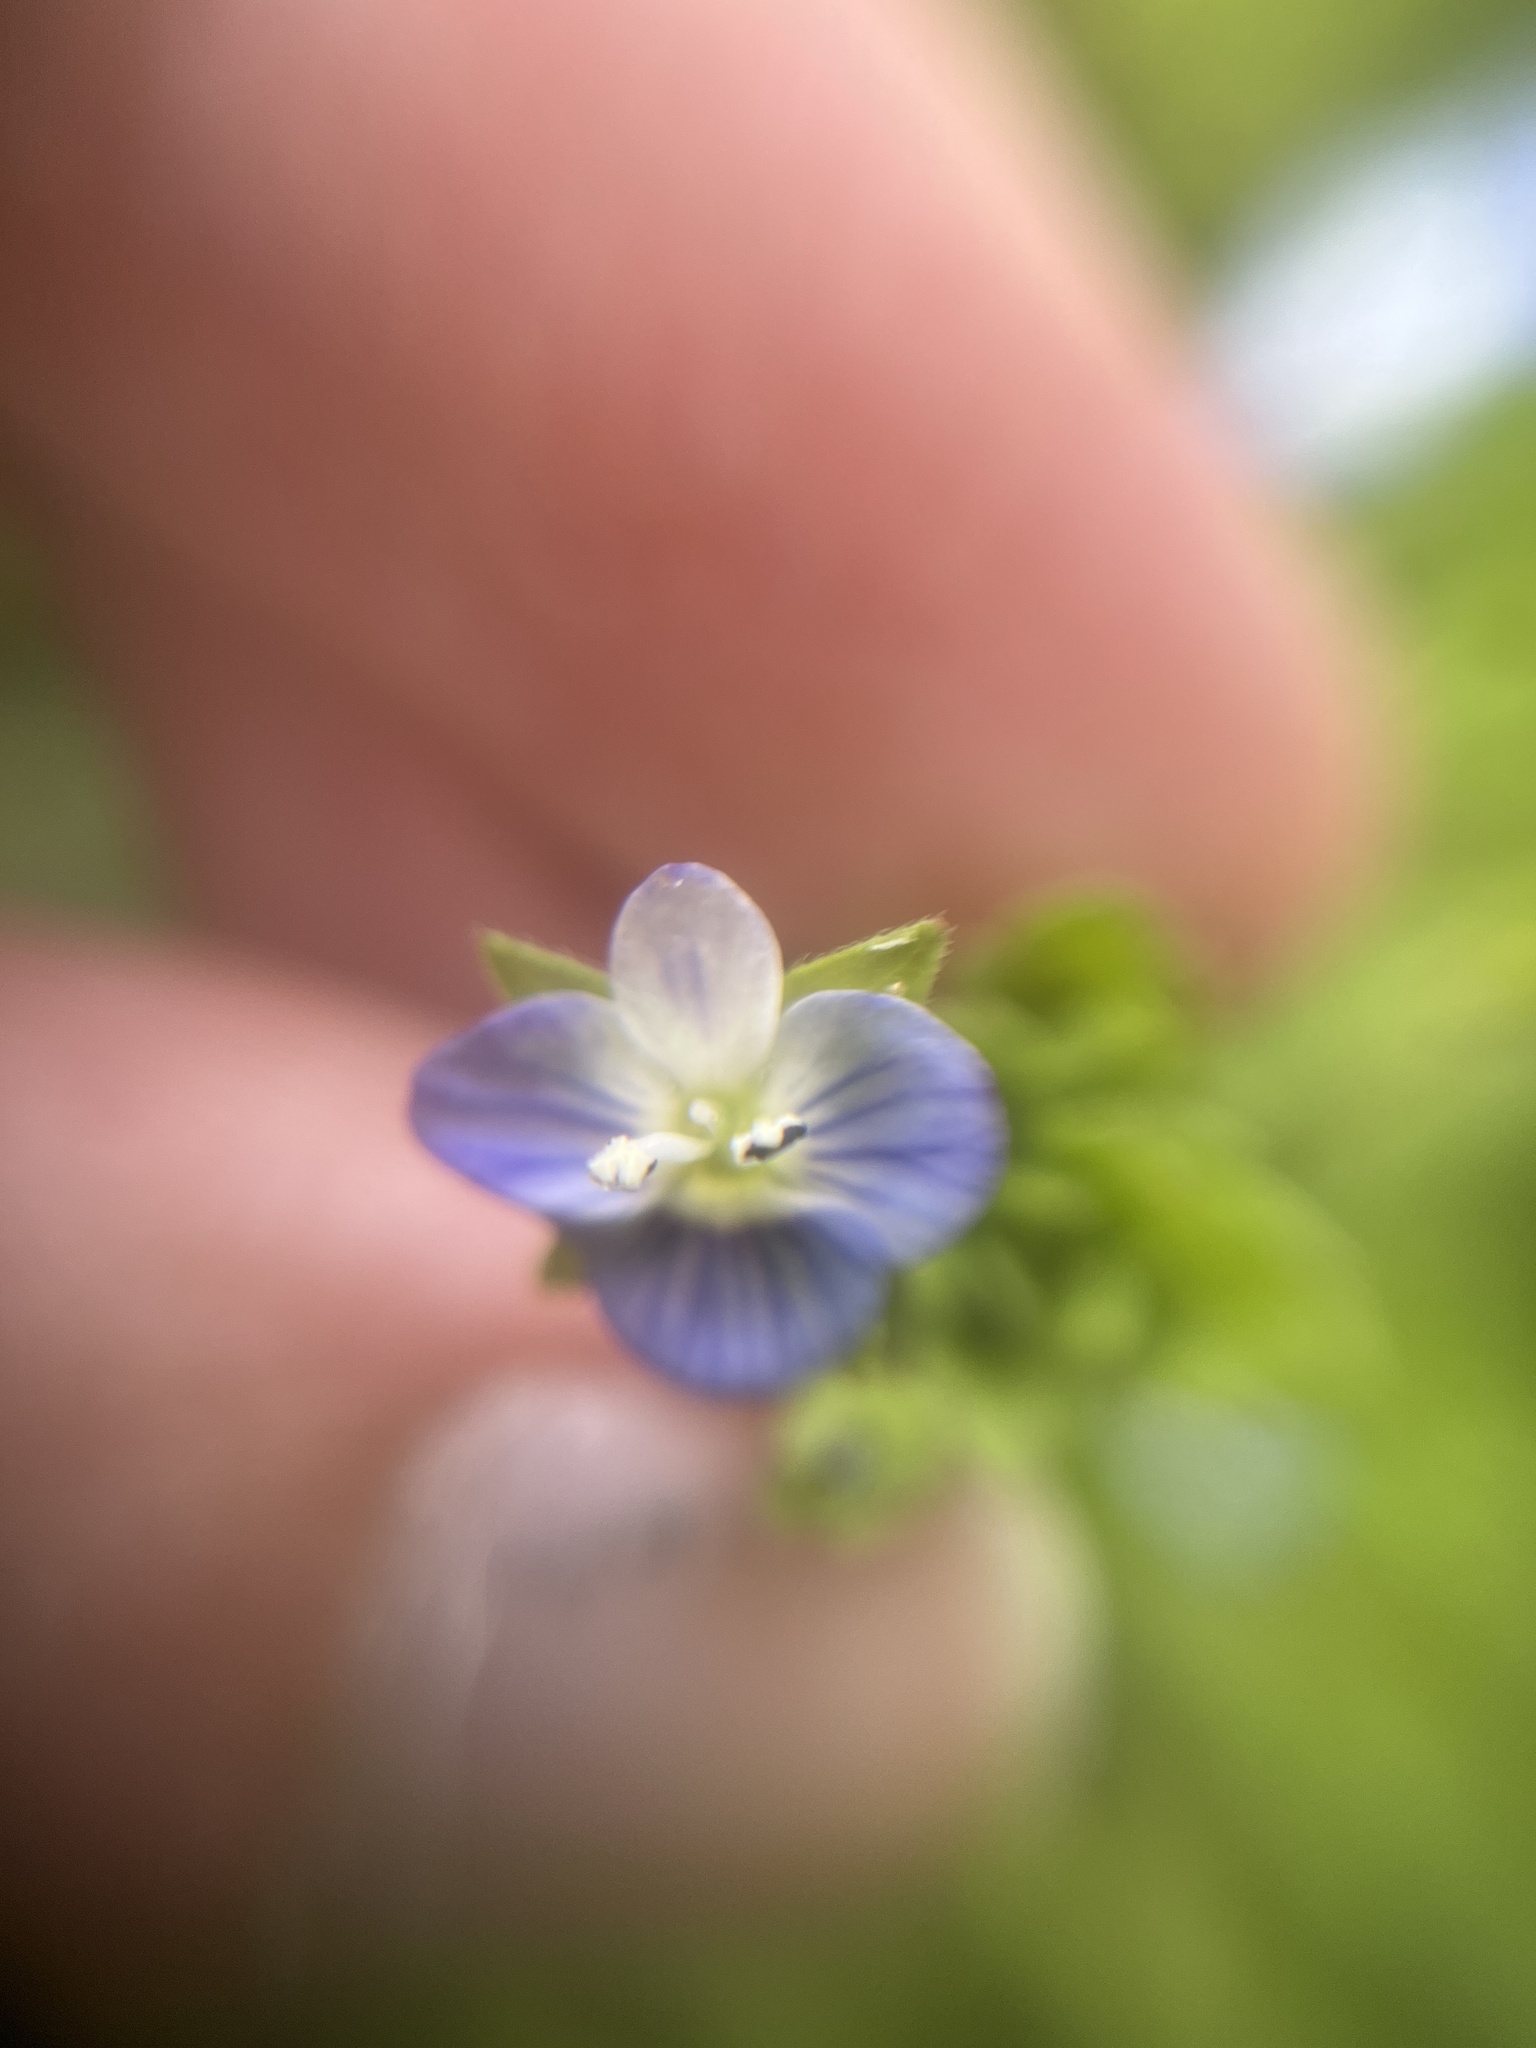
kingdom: Plantae
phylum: Tracheophyta
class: Magnoliopsida
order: Lamiales
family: Plantaginaceae
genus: Veronica
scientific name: Veronica persica
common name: Common field-speedwell
